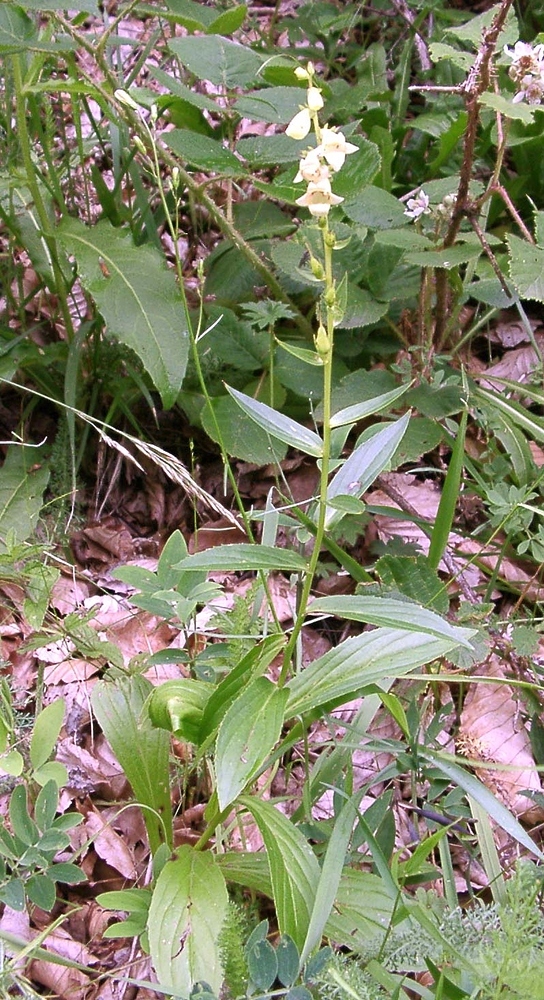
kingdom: Plantae
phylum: Tracheophyta
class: Magnoliopsida
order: Lamiales
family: Plantaginaceae
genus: Digitalis
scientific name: Digitalis lutea
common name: Straw foxglove
